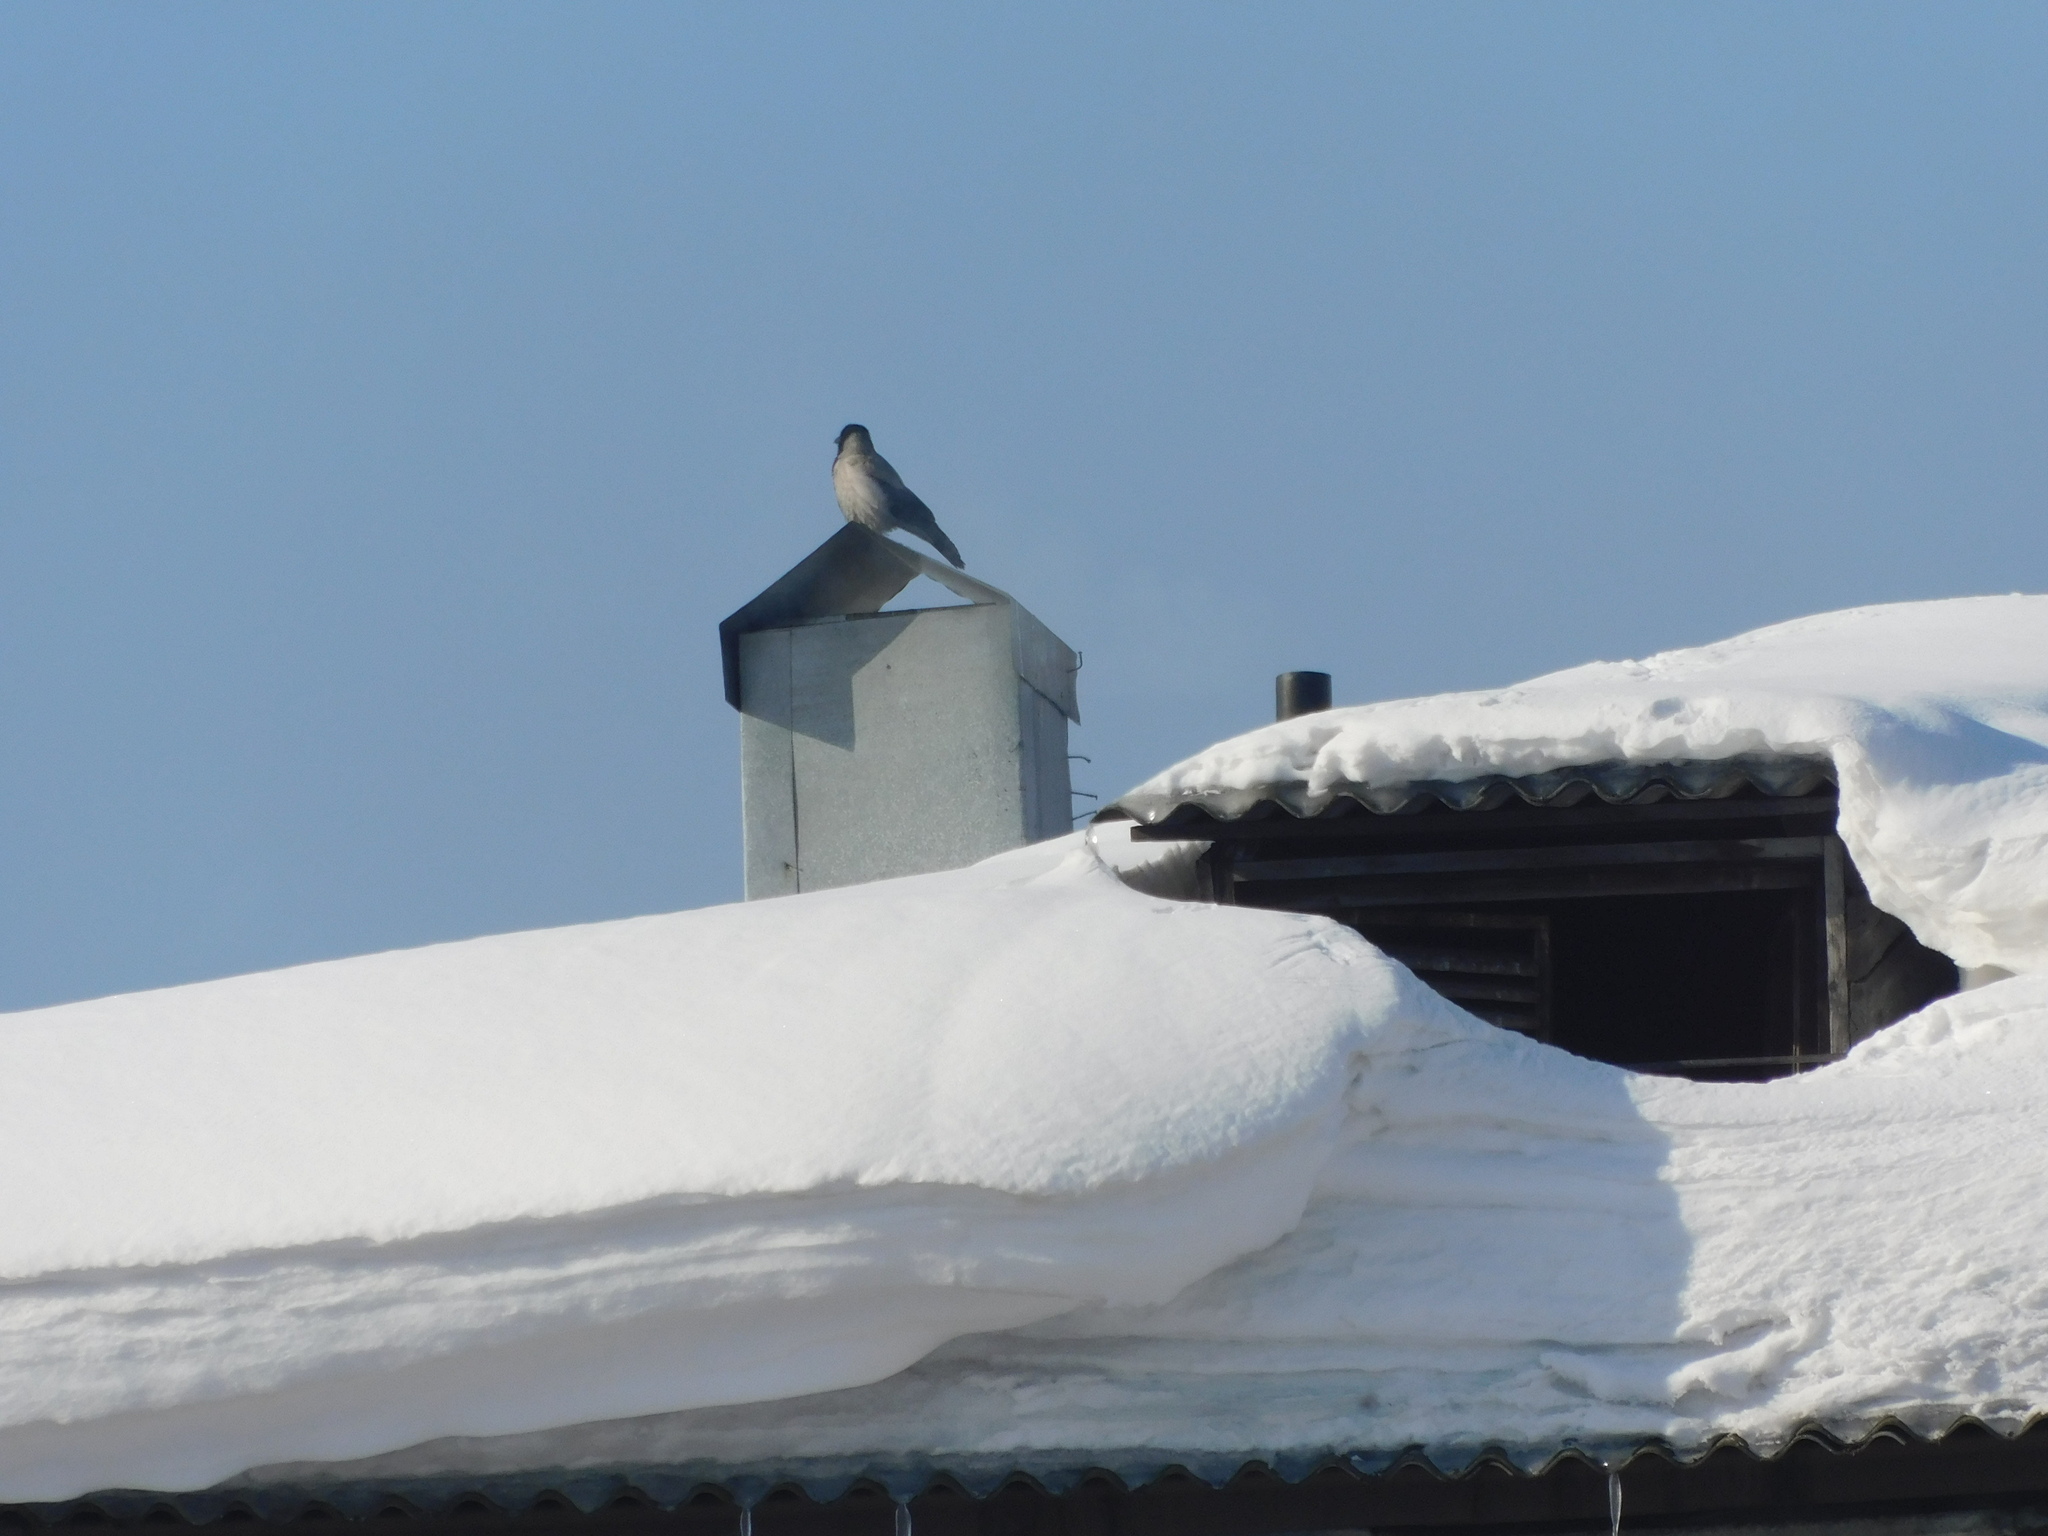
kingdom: Animalia
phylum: Chordata
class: Aves
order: Passeriformes
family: Corvidae
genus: Corvus
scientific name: Corvus cornix
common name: Hooded crow
